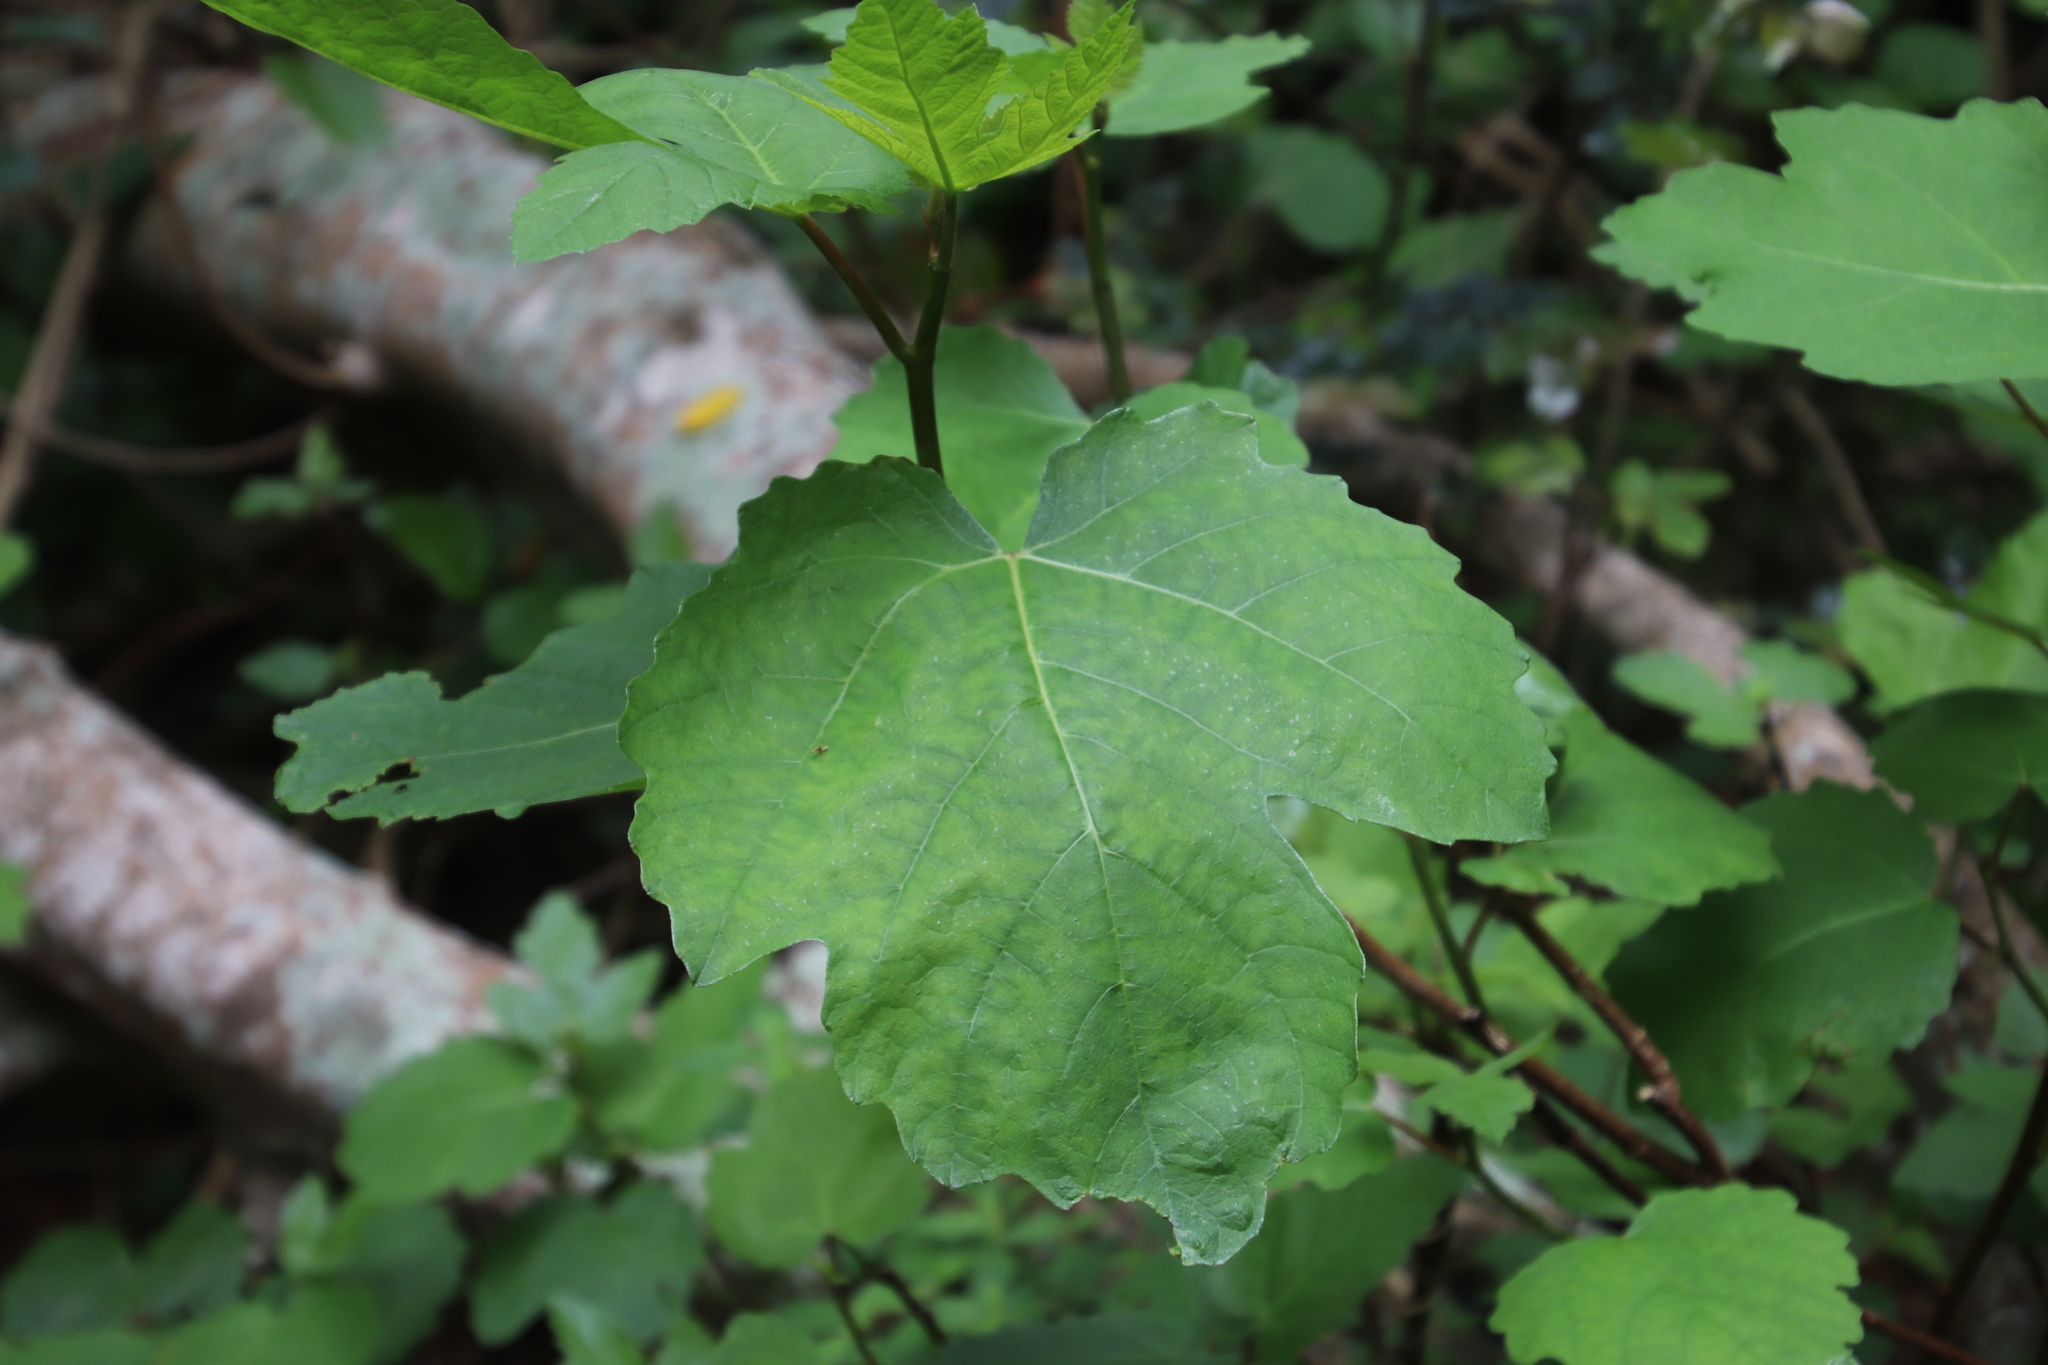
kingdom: Plantae
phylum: Tracheophyta
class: Magnoliopsida
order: Rosales
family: Moraceae
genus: Ficus
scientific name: Ficus carica
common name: Fig
